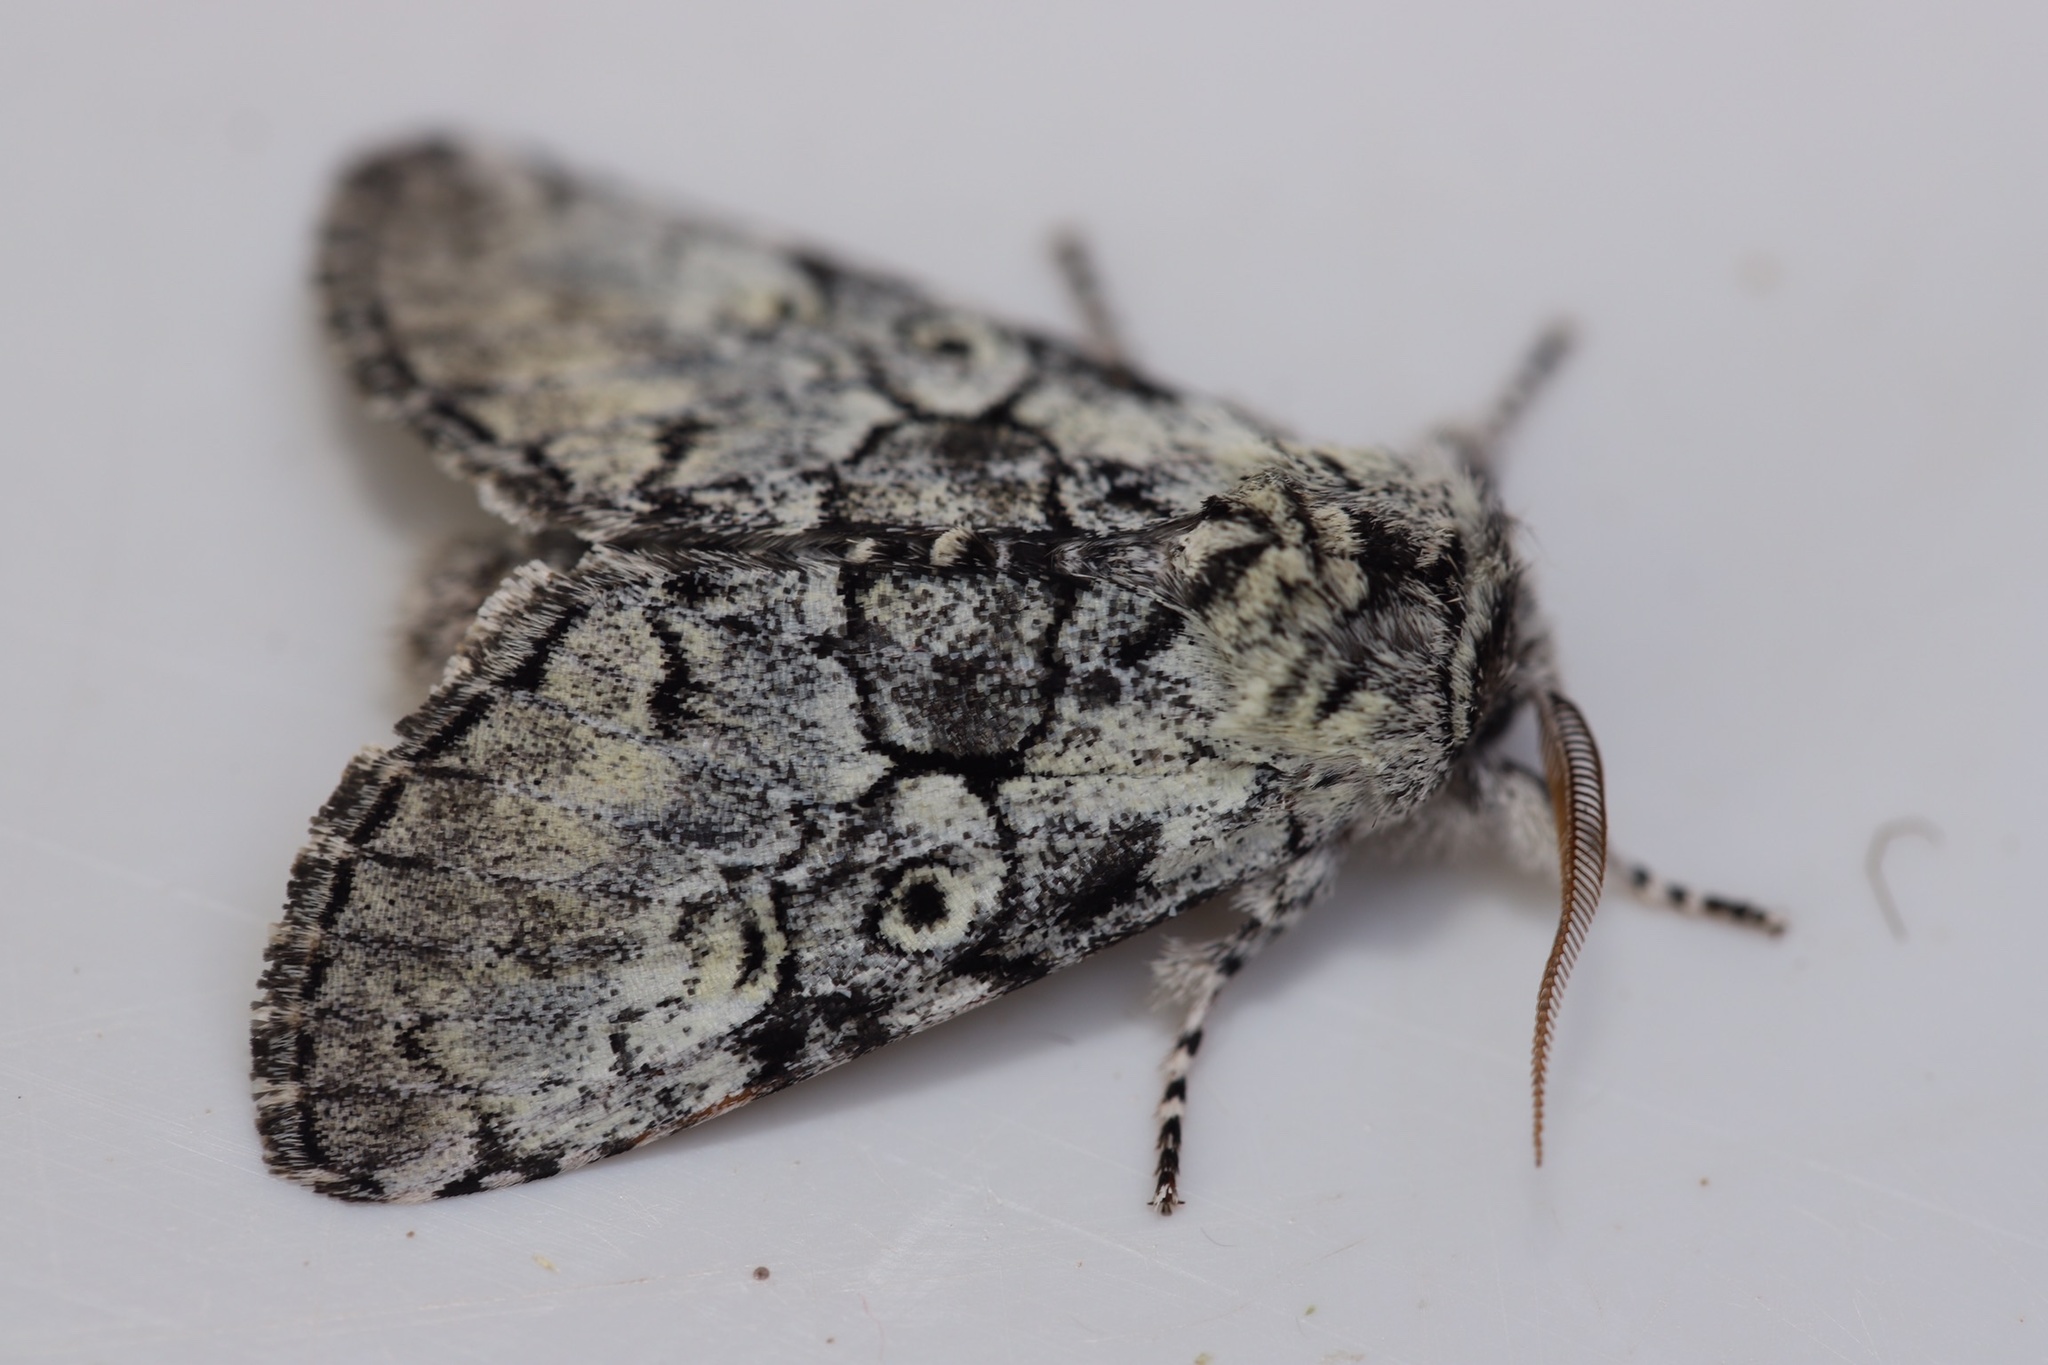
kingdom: Animalia
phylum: Arthropoda
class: Insecta
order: Lepidoptera
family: Noctuidae
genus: Charadra
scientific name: Charadra deridens
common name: Marbled tuffet
